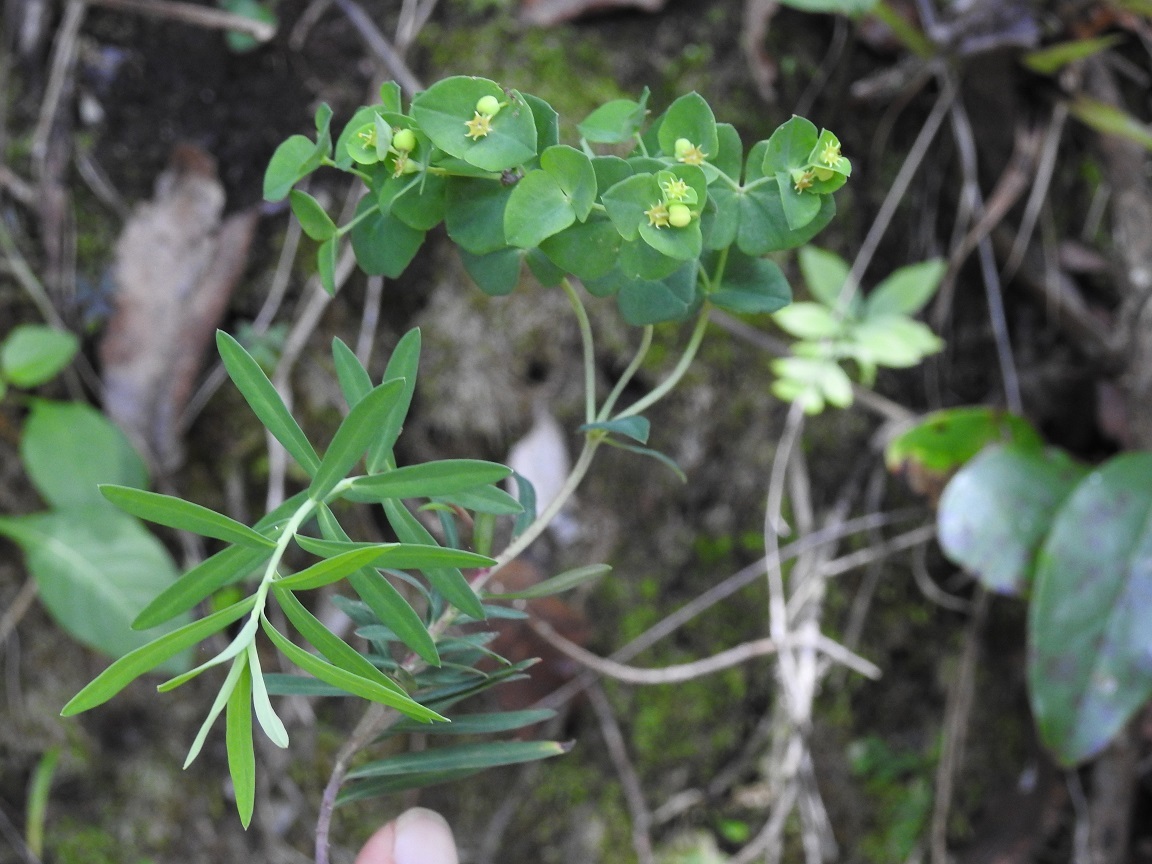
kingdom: Plantae
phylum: Tracheophyta
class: Magnoliopsida
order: Malpighiales
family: Euphorbiaceae
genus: Euphorbia
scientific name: Euphorbia furcillata
